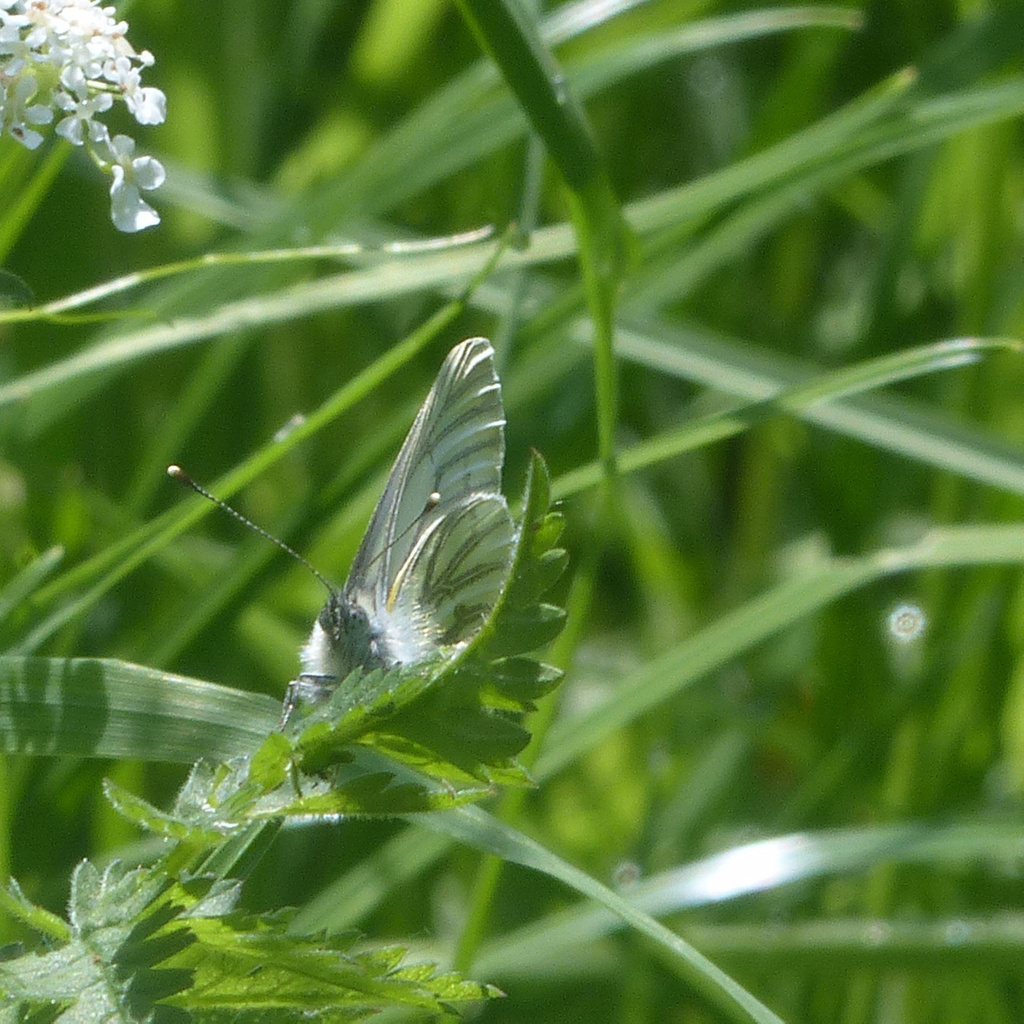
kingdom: Animalia
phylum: Arthropoda
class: Insecta
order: Lepidoptera
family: Pieridae
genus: Pieris
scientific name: Pieris napi
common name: Green-veined white
